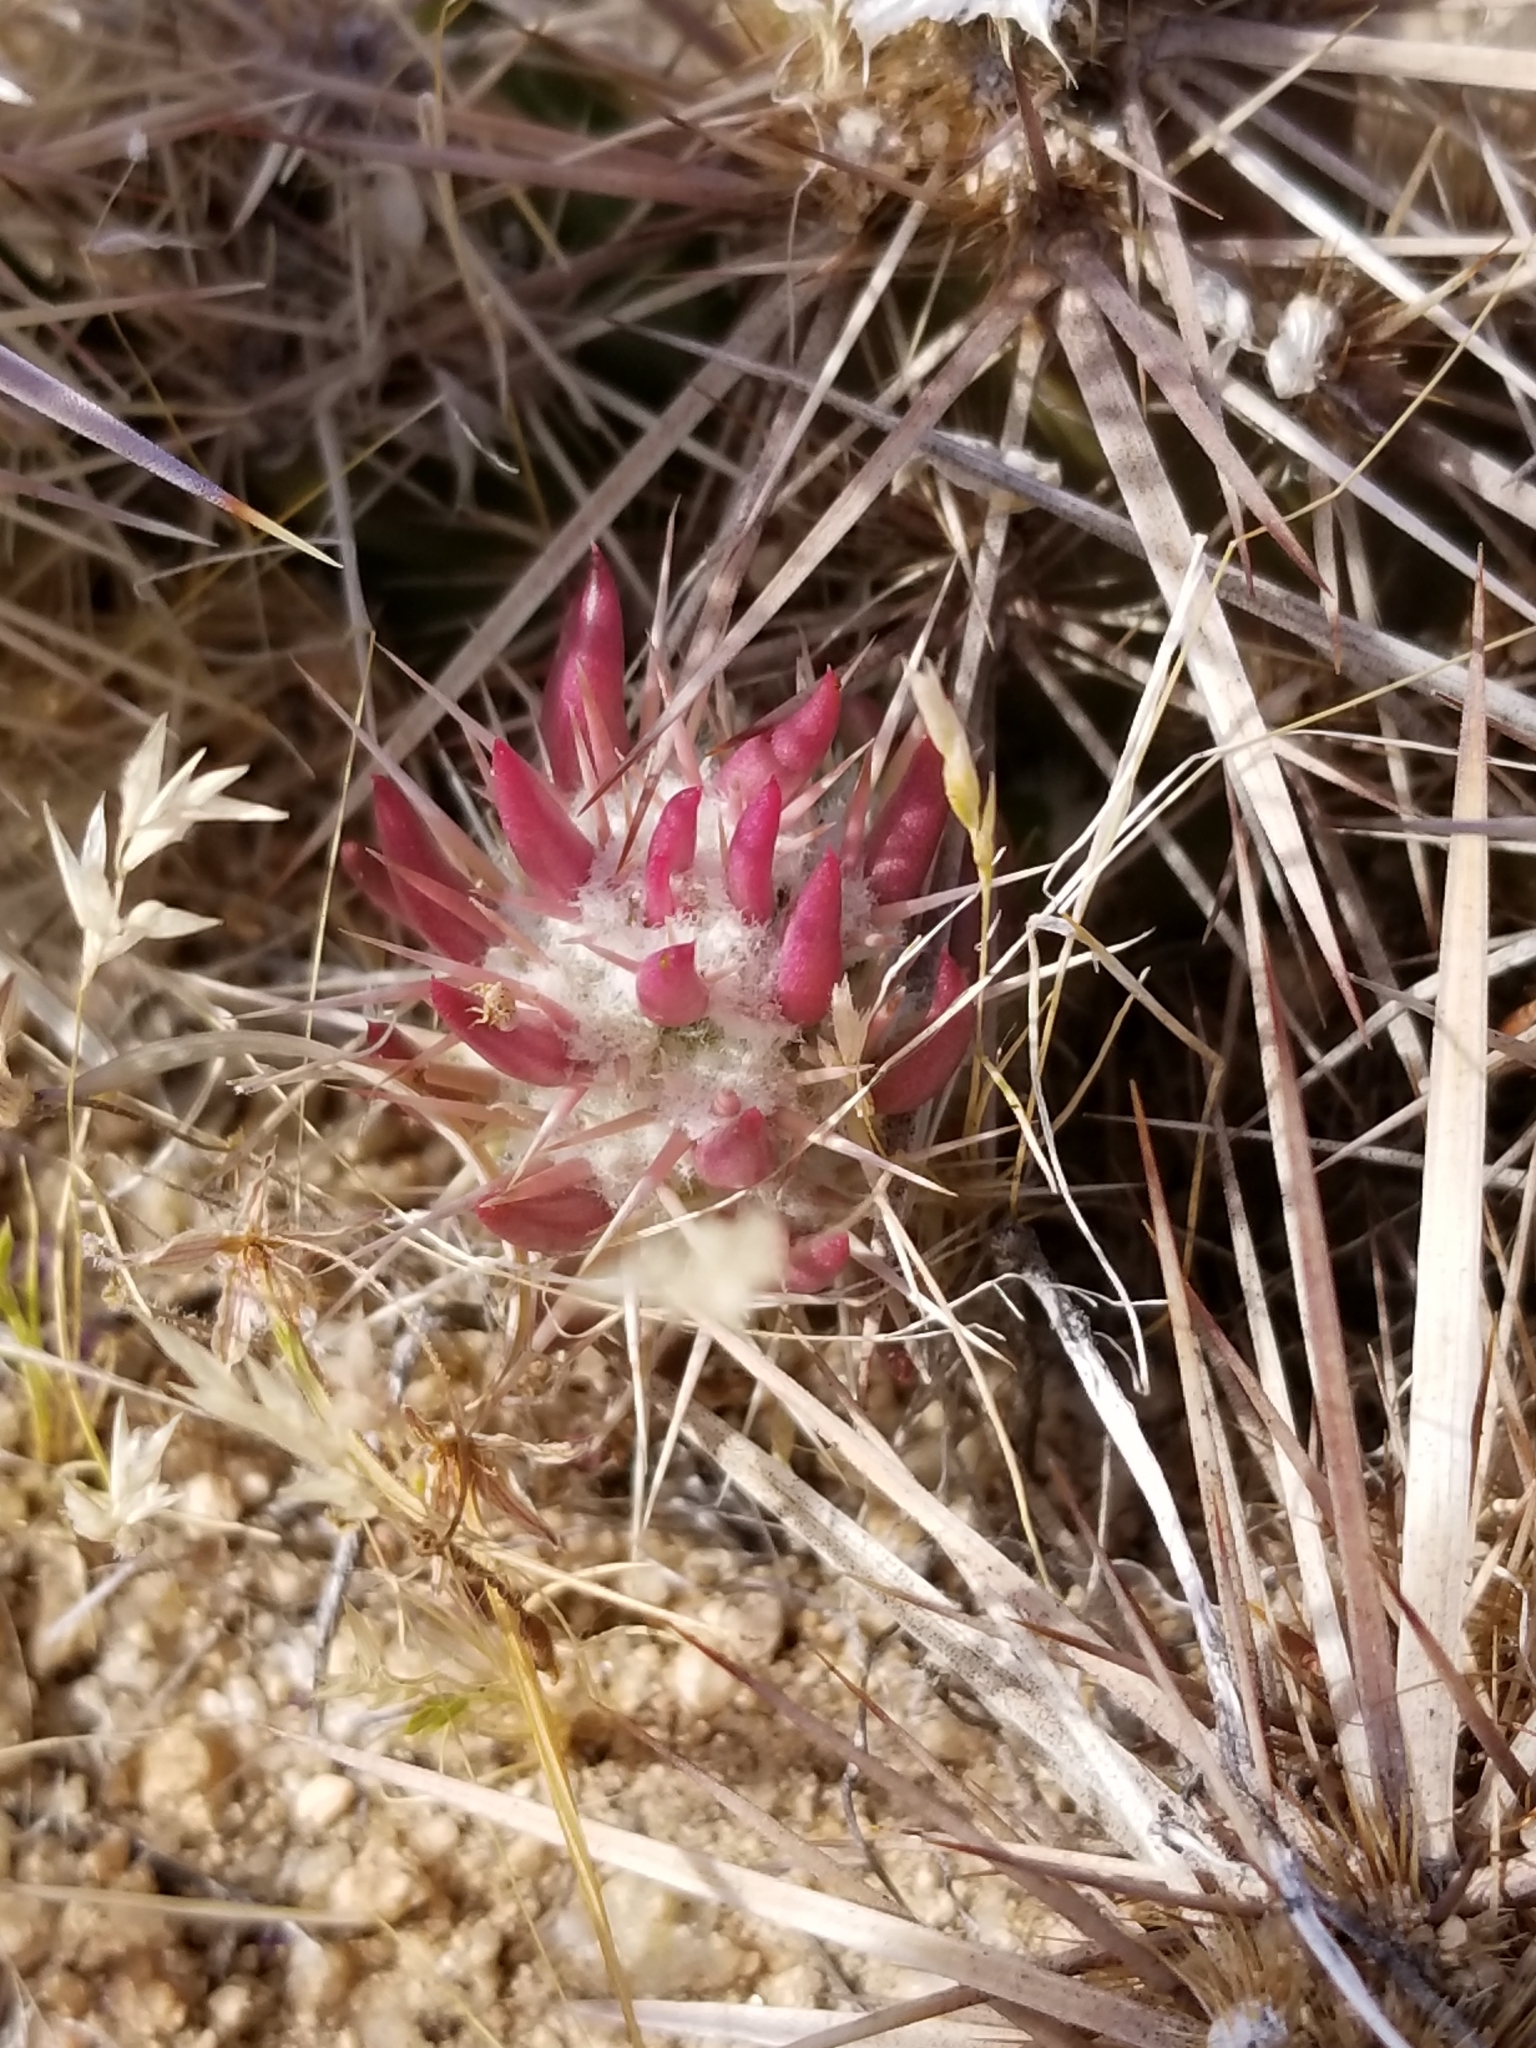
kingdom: Plantae
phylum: Tracheophyta
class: Magnoliopsida
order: Caryophyllales
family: Cactaceae
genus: Grusonia
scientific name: Grusonia parishiorum
